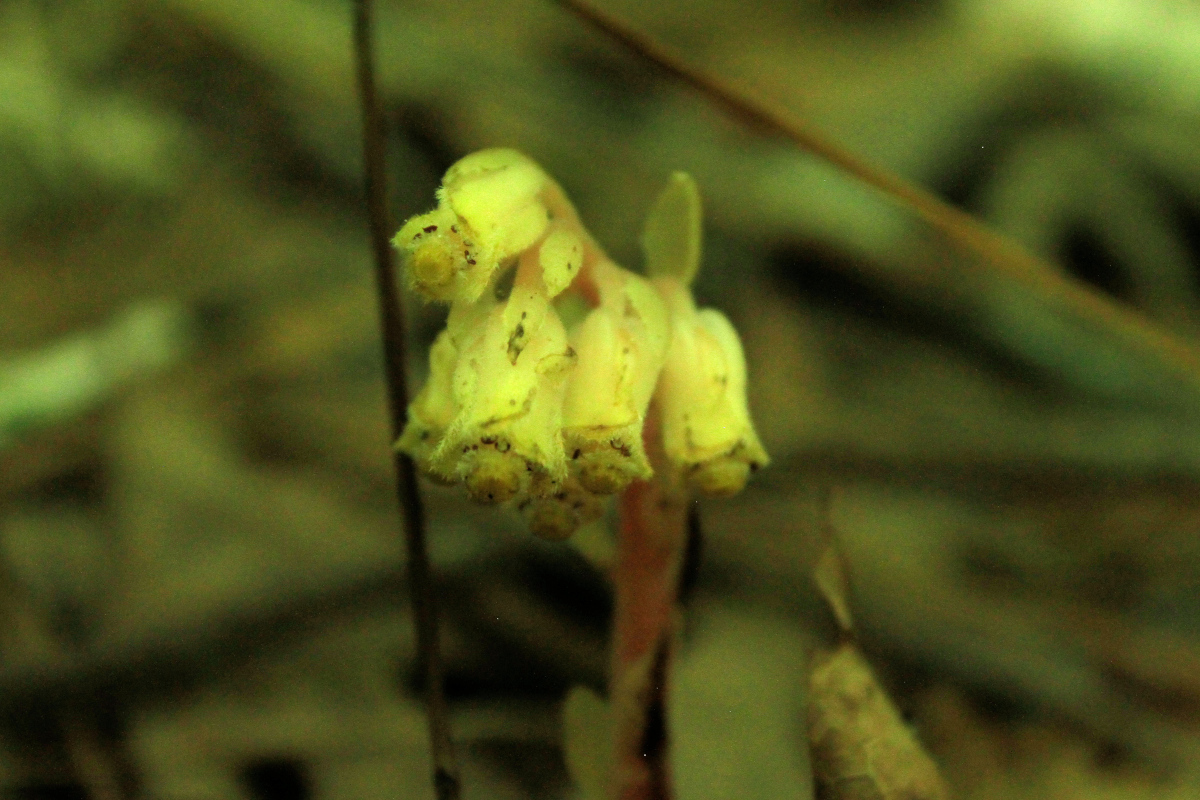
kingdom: Plantae
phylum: Tracheophyta
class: Magnoliopsida
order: Ericales
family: Ericaceae
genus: Hypopitys
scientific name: Hypopitys monotropa
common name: Yellow bird's-nest
